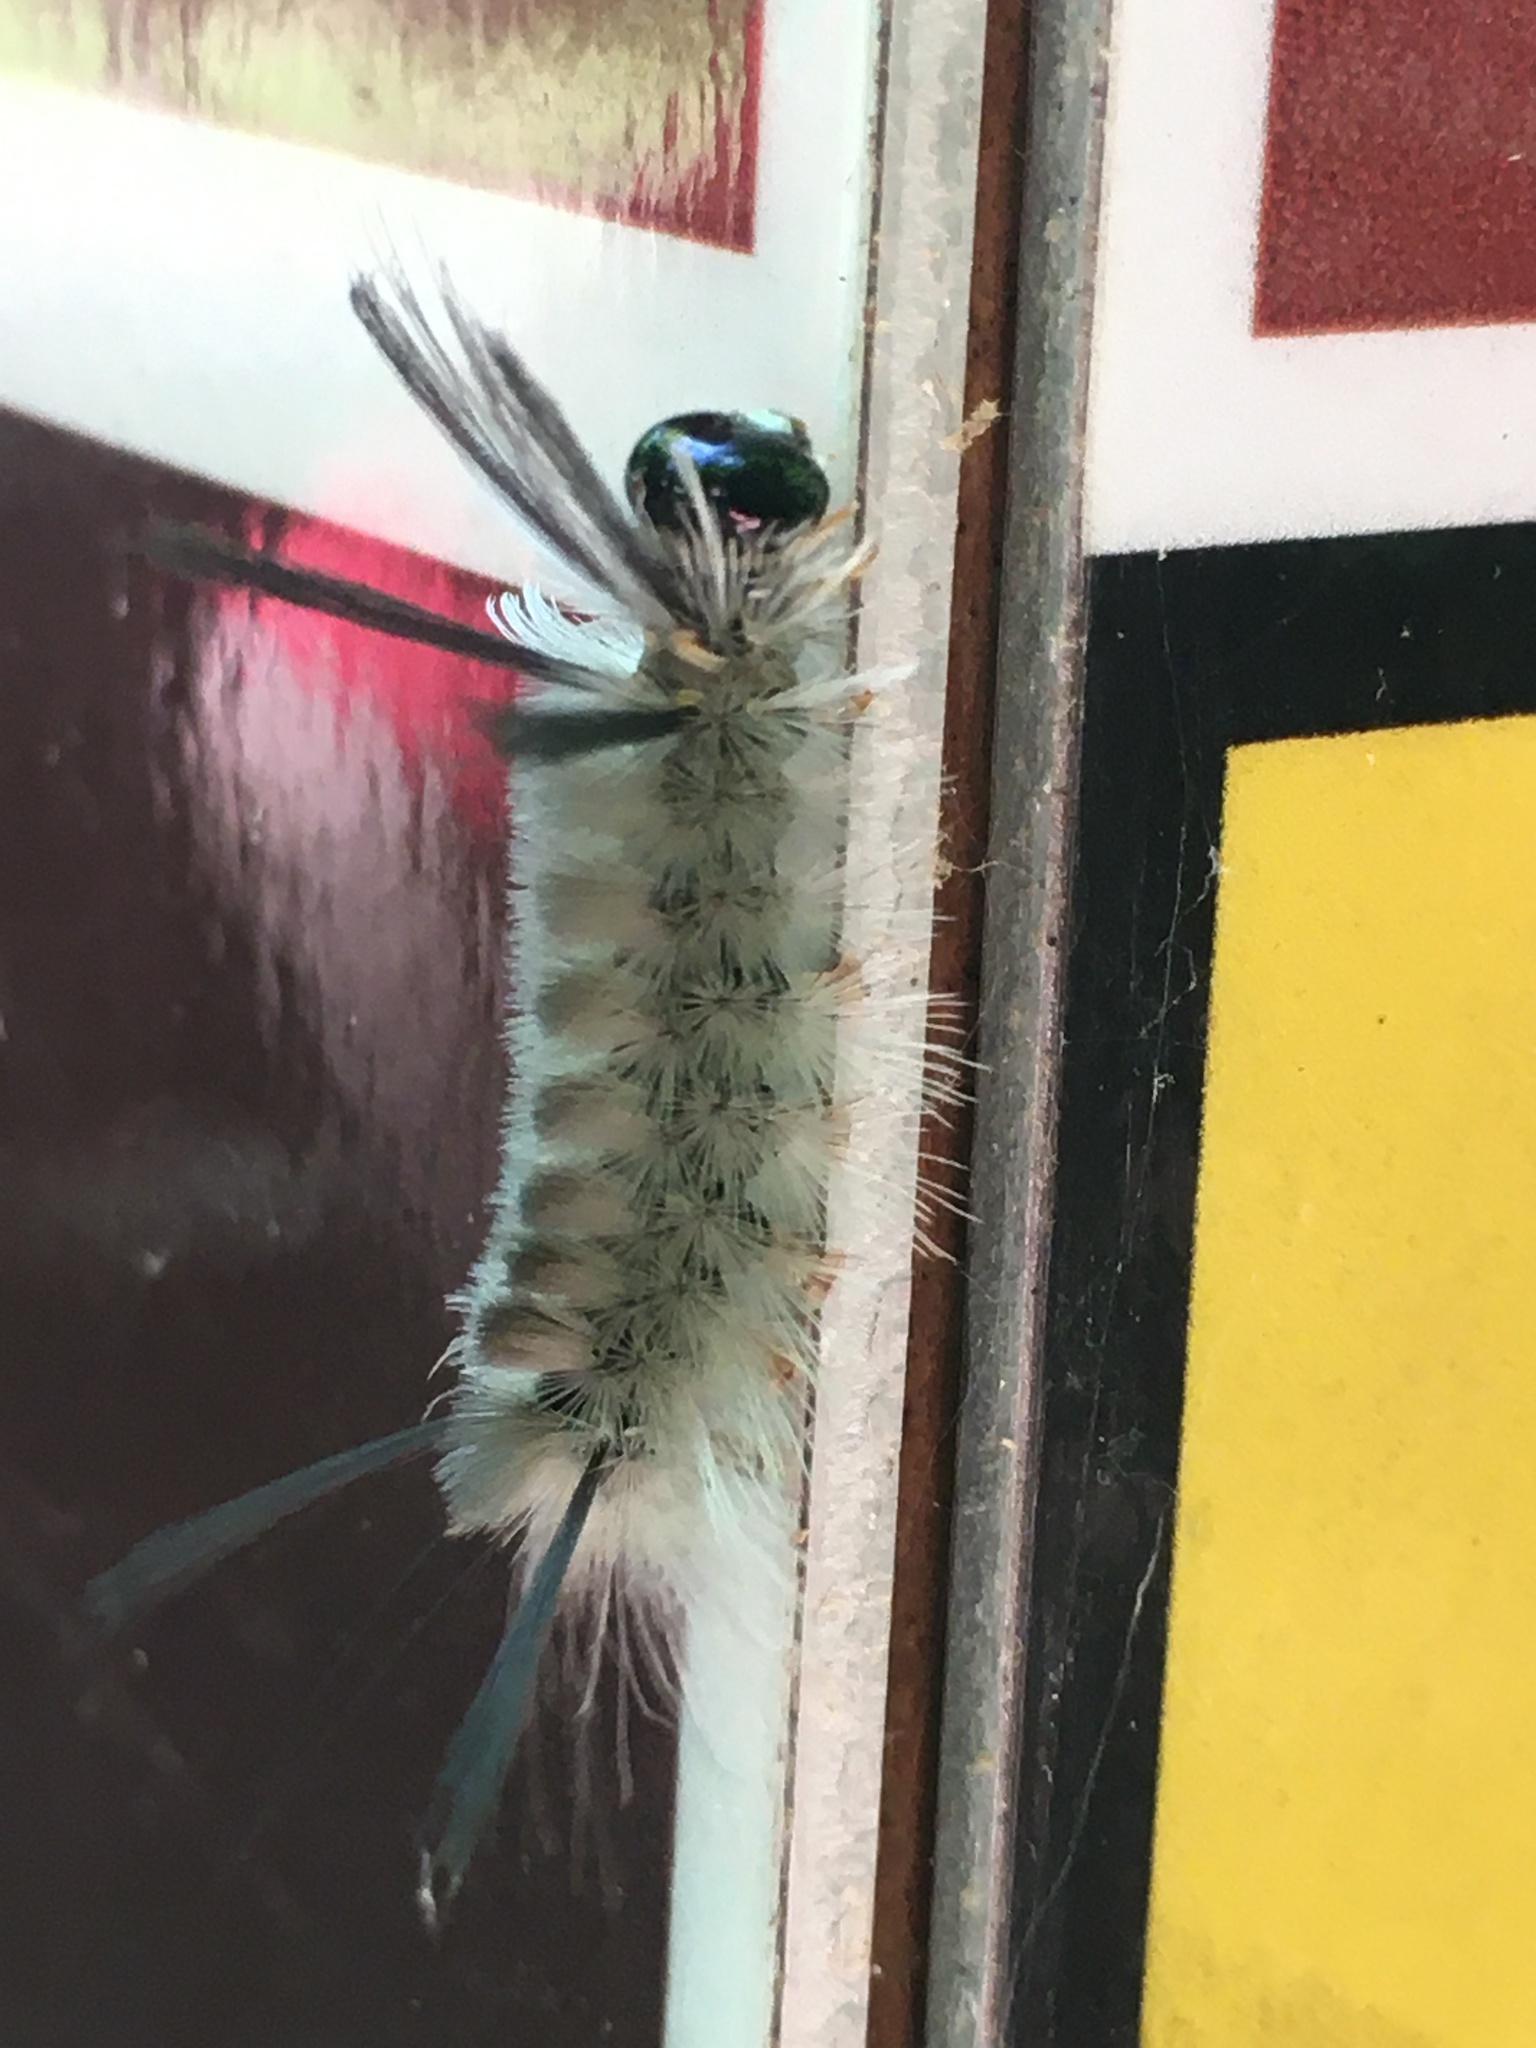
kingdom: Animalia
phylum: Arthropoda
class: Insecta
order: Lepidoptera
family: Erebidae
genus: Halysidota
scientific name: Halysidota tessellaris
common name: Banded tussock moth
